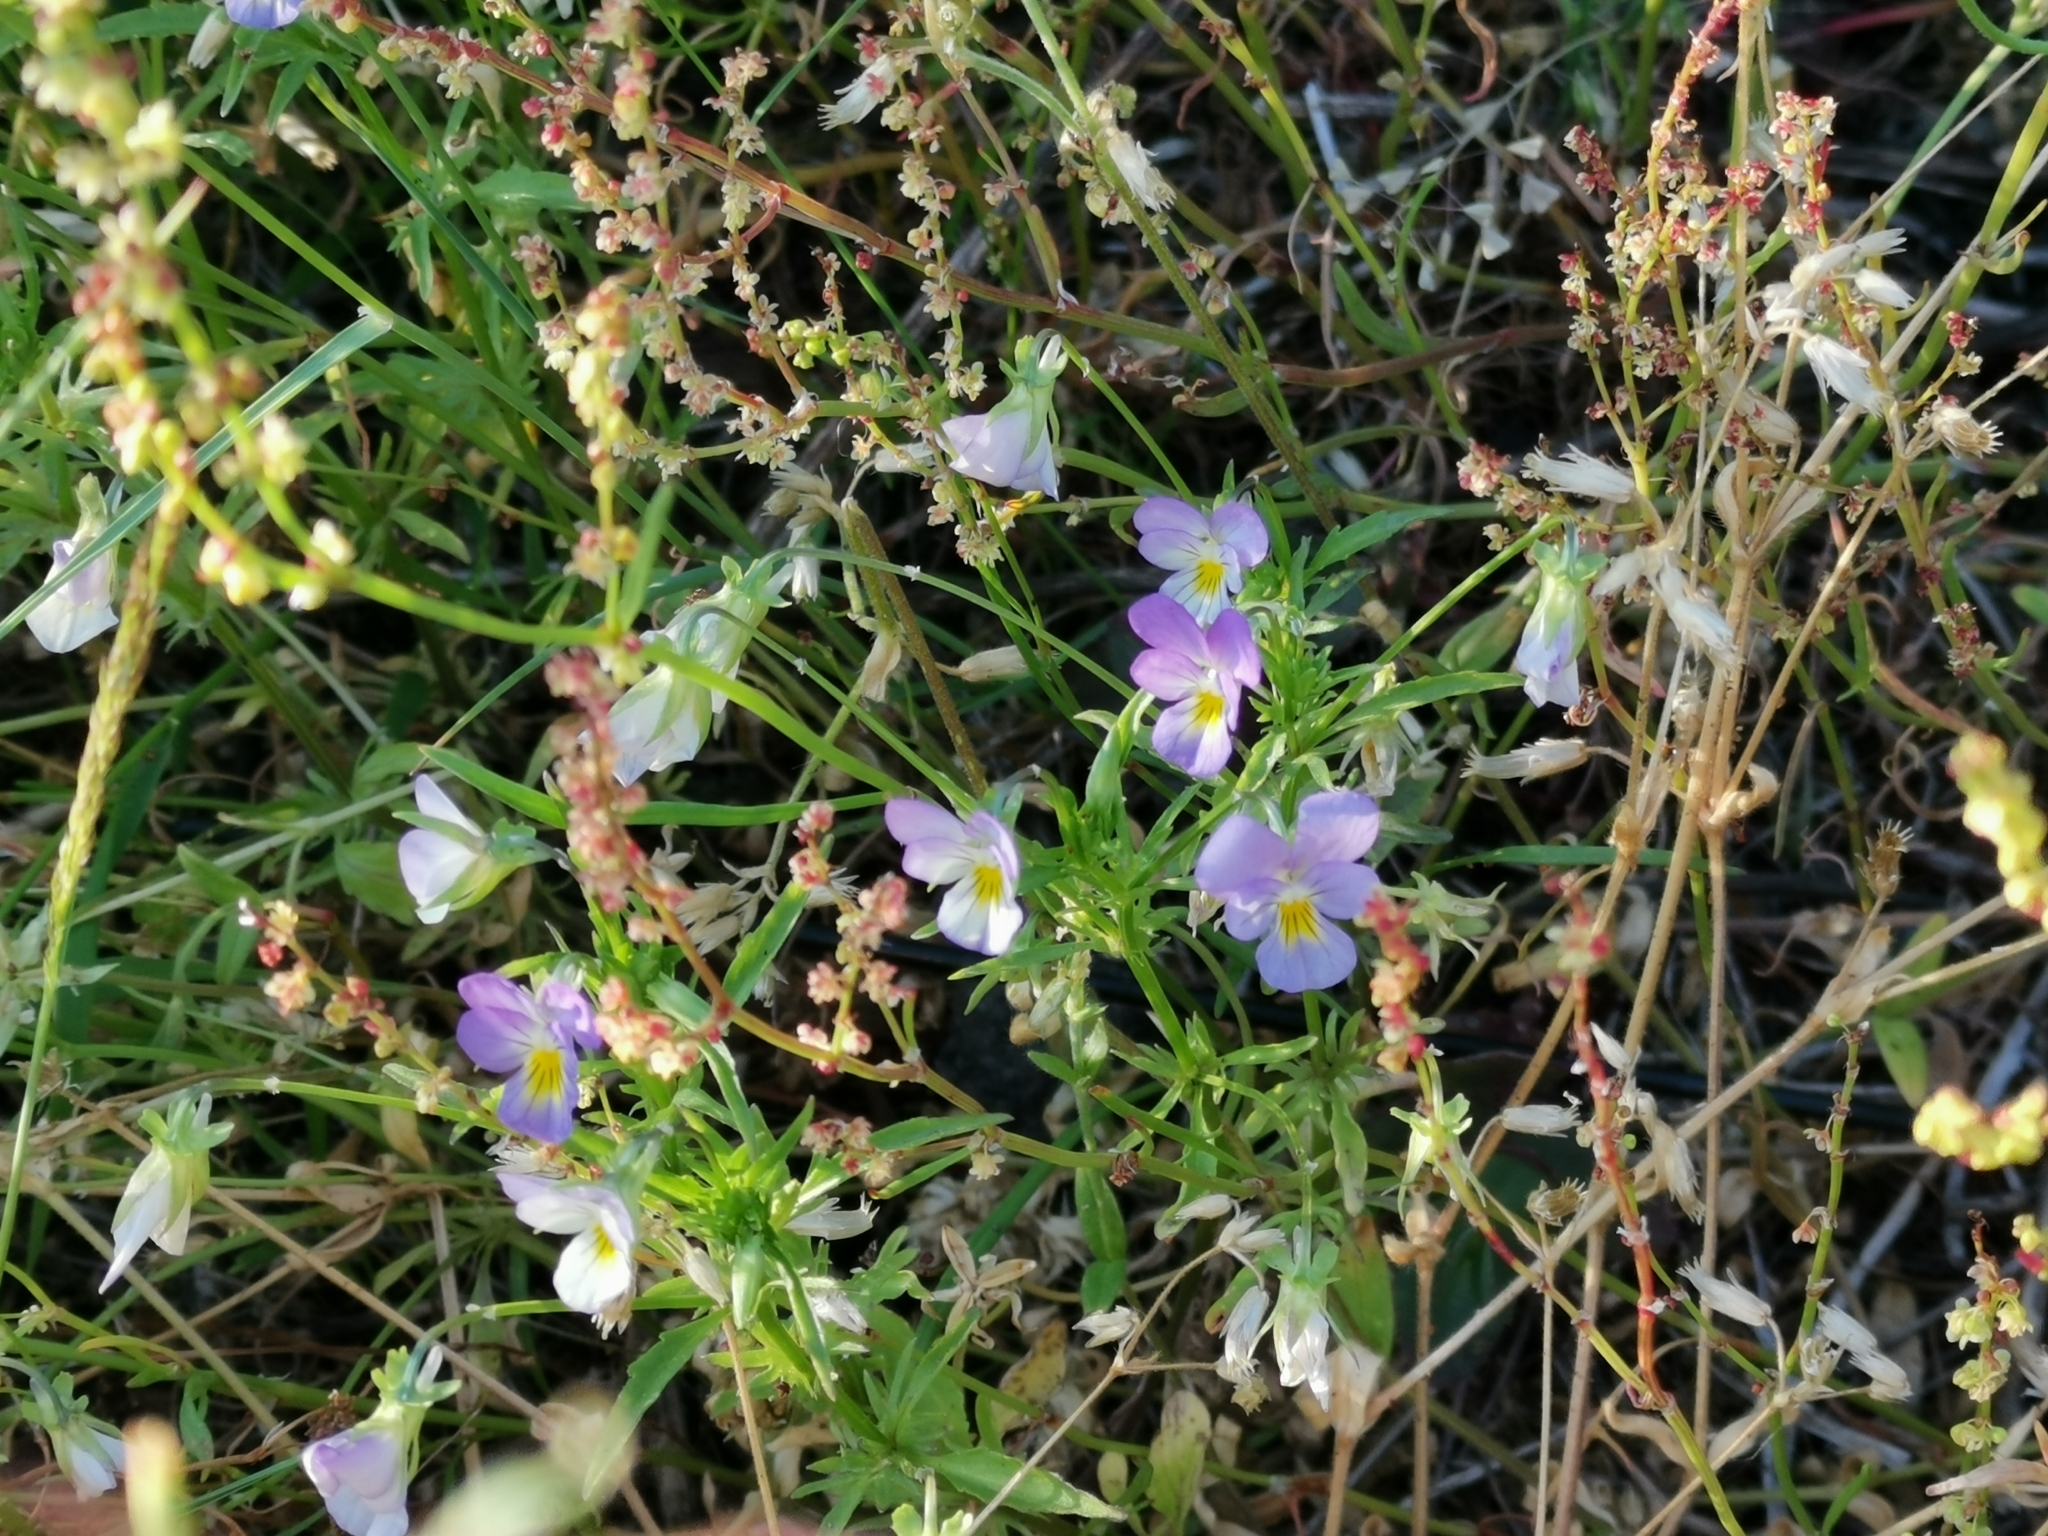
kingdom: Plantae
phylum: Tracheophyta
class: Magnoliopsida
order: Malpighiales
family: Violaceae
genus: Viola
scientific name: Viola tricolor
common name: Pansy
